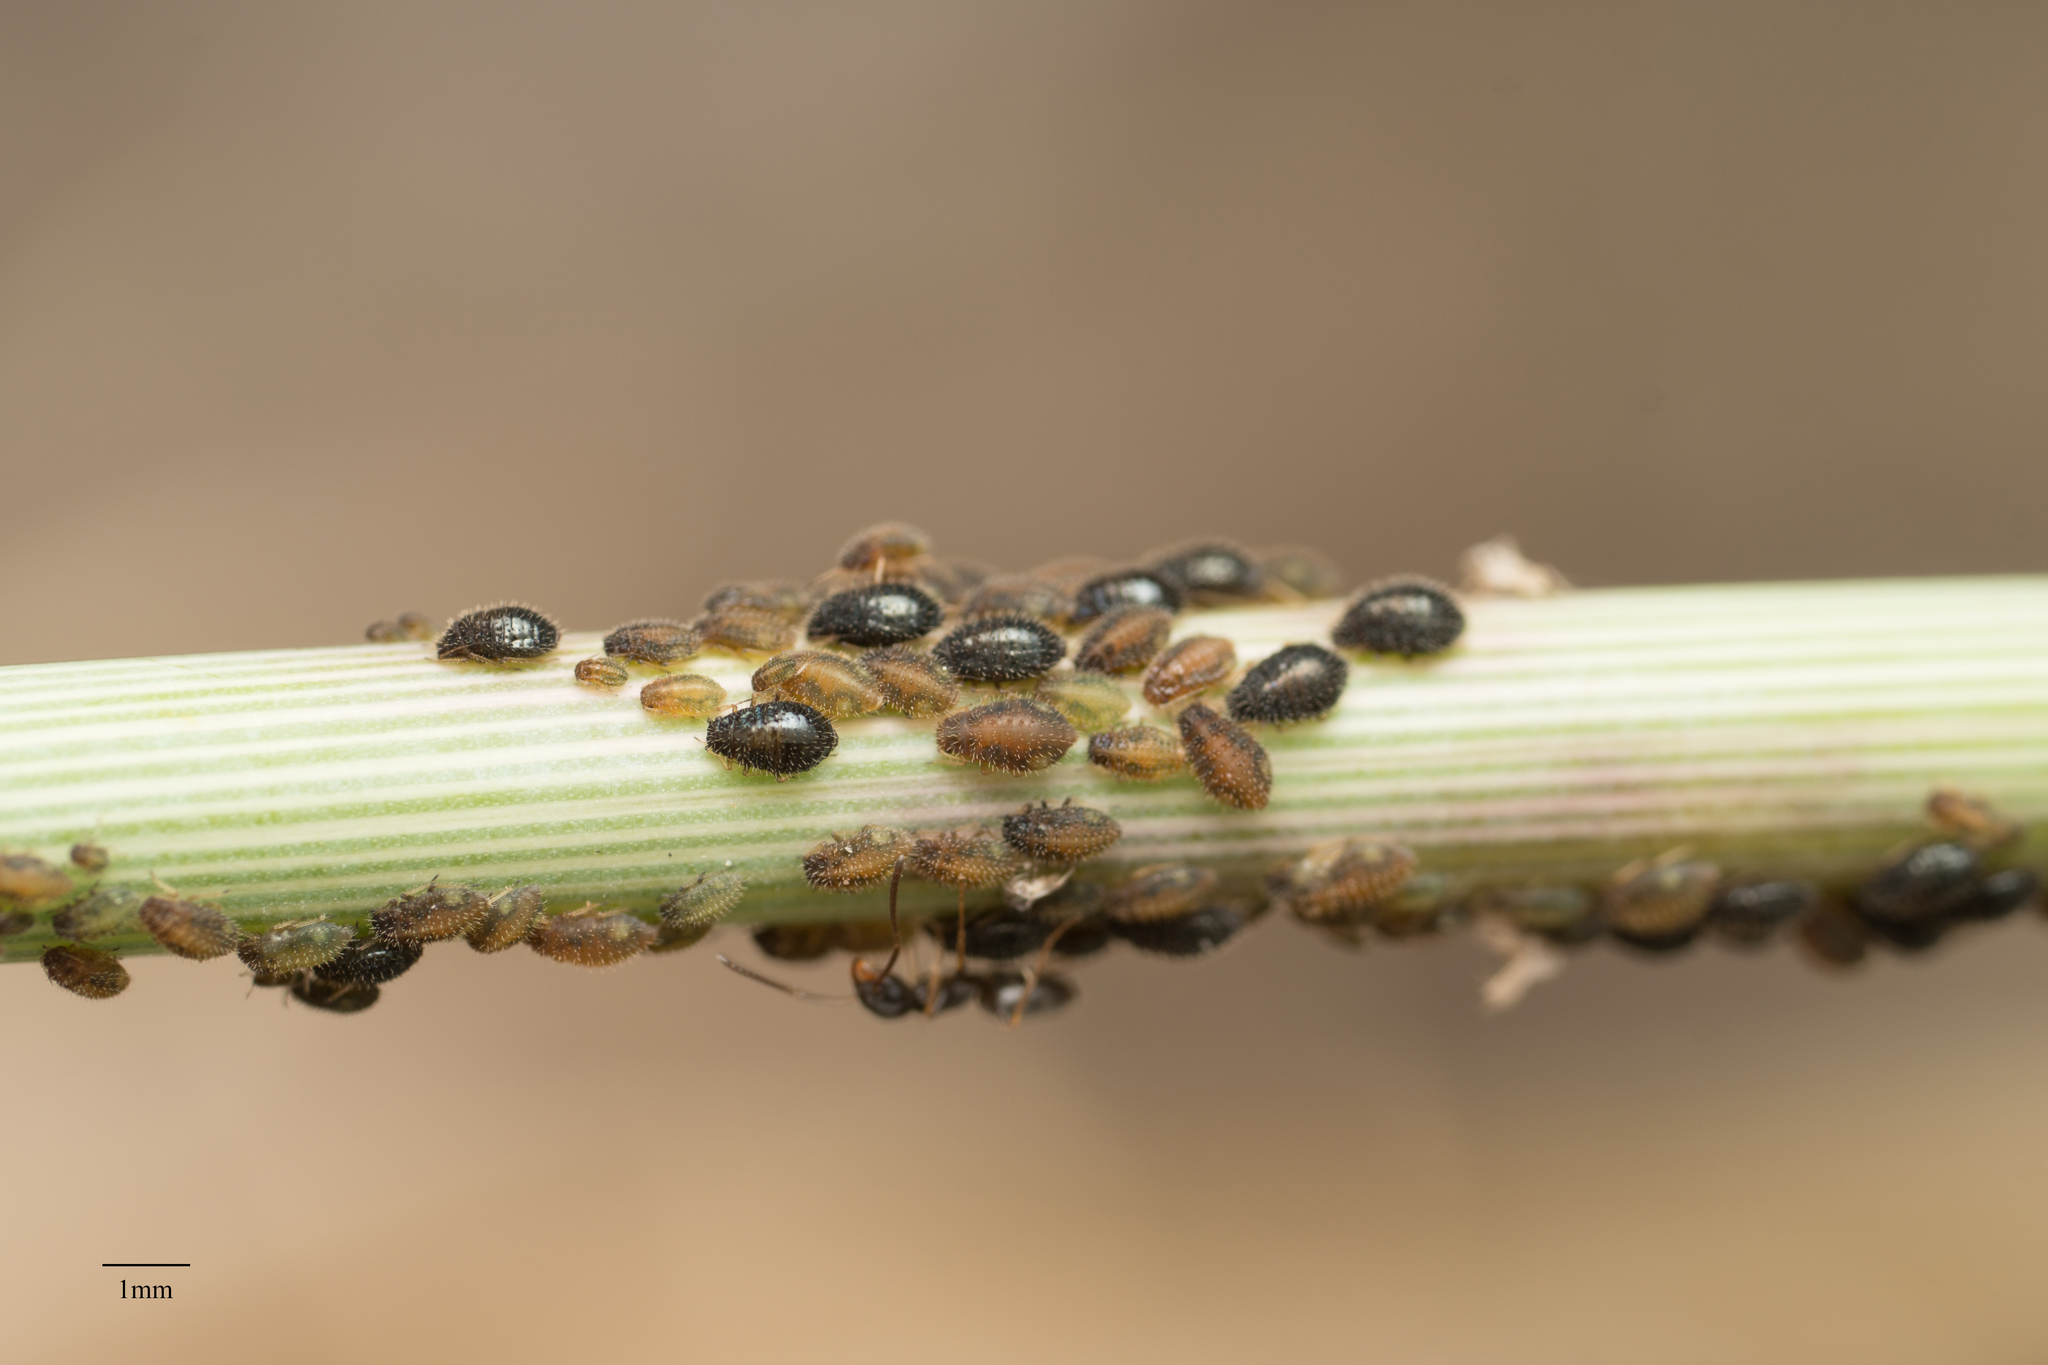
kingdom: Animalia
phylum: Arthropoda
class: Insecta
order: Hemiptera
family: Aphididae
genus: Sipha
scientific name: Sipha maydis
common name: Aphid
